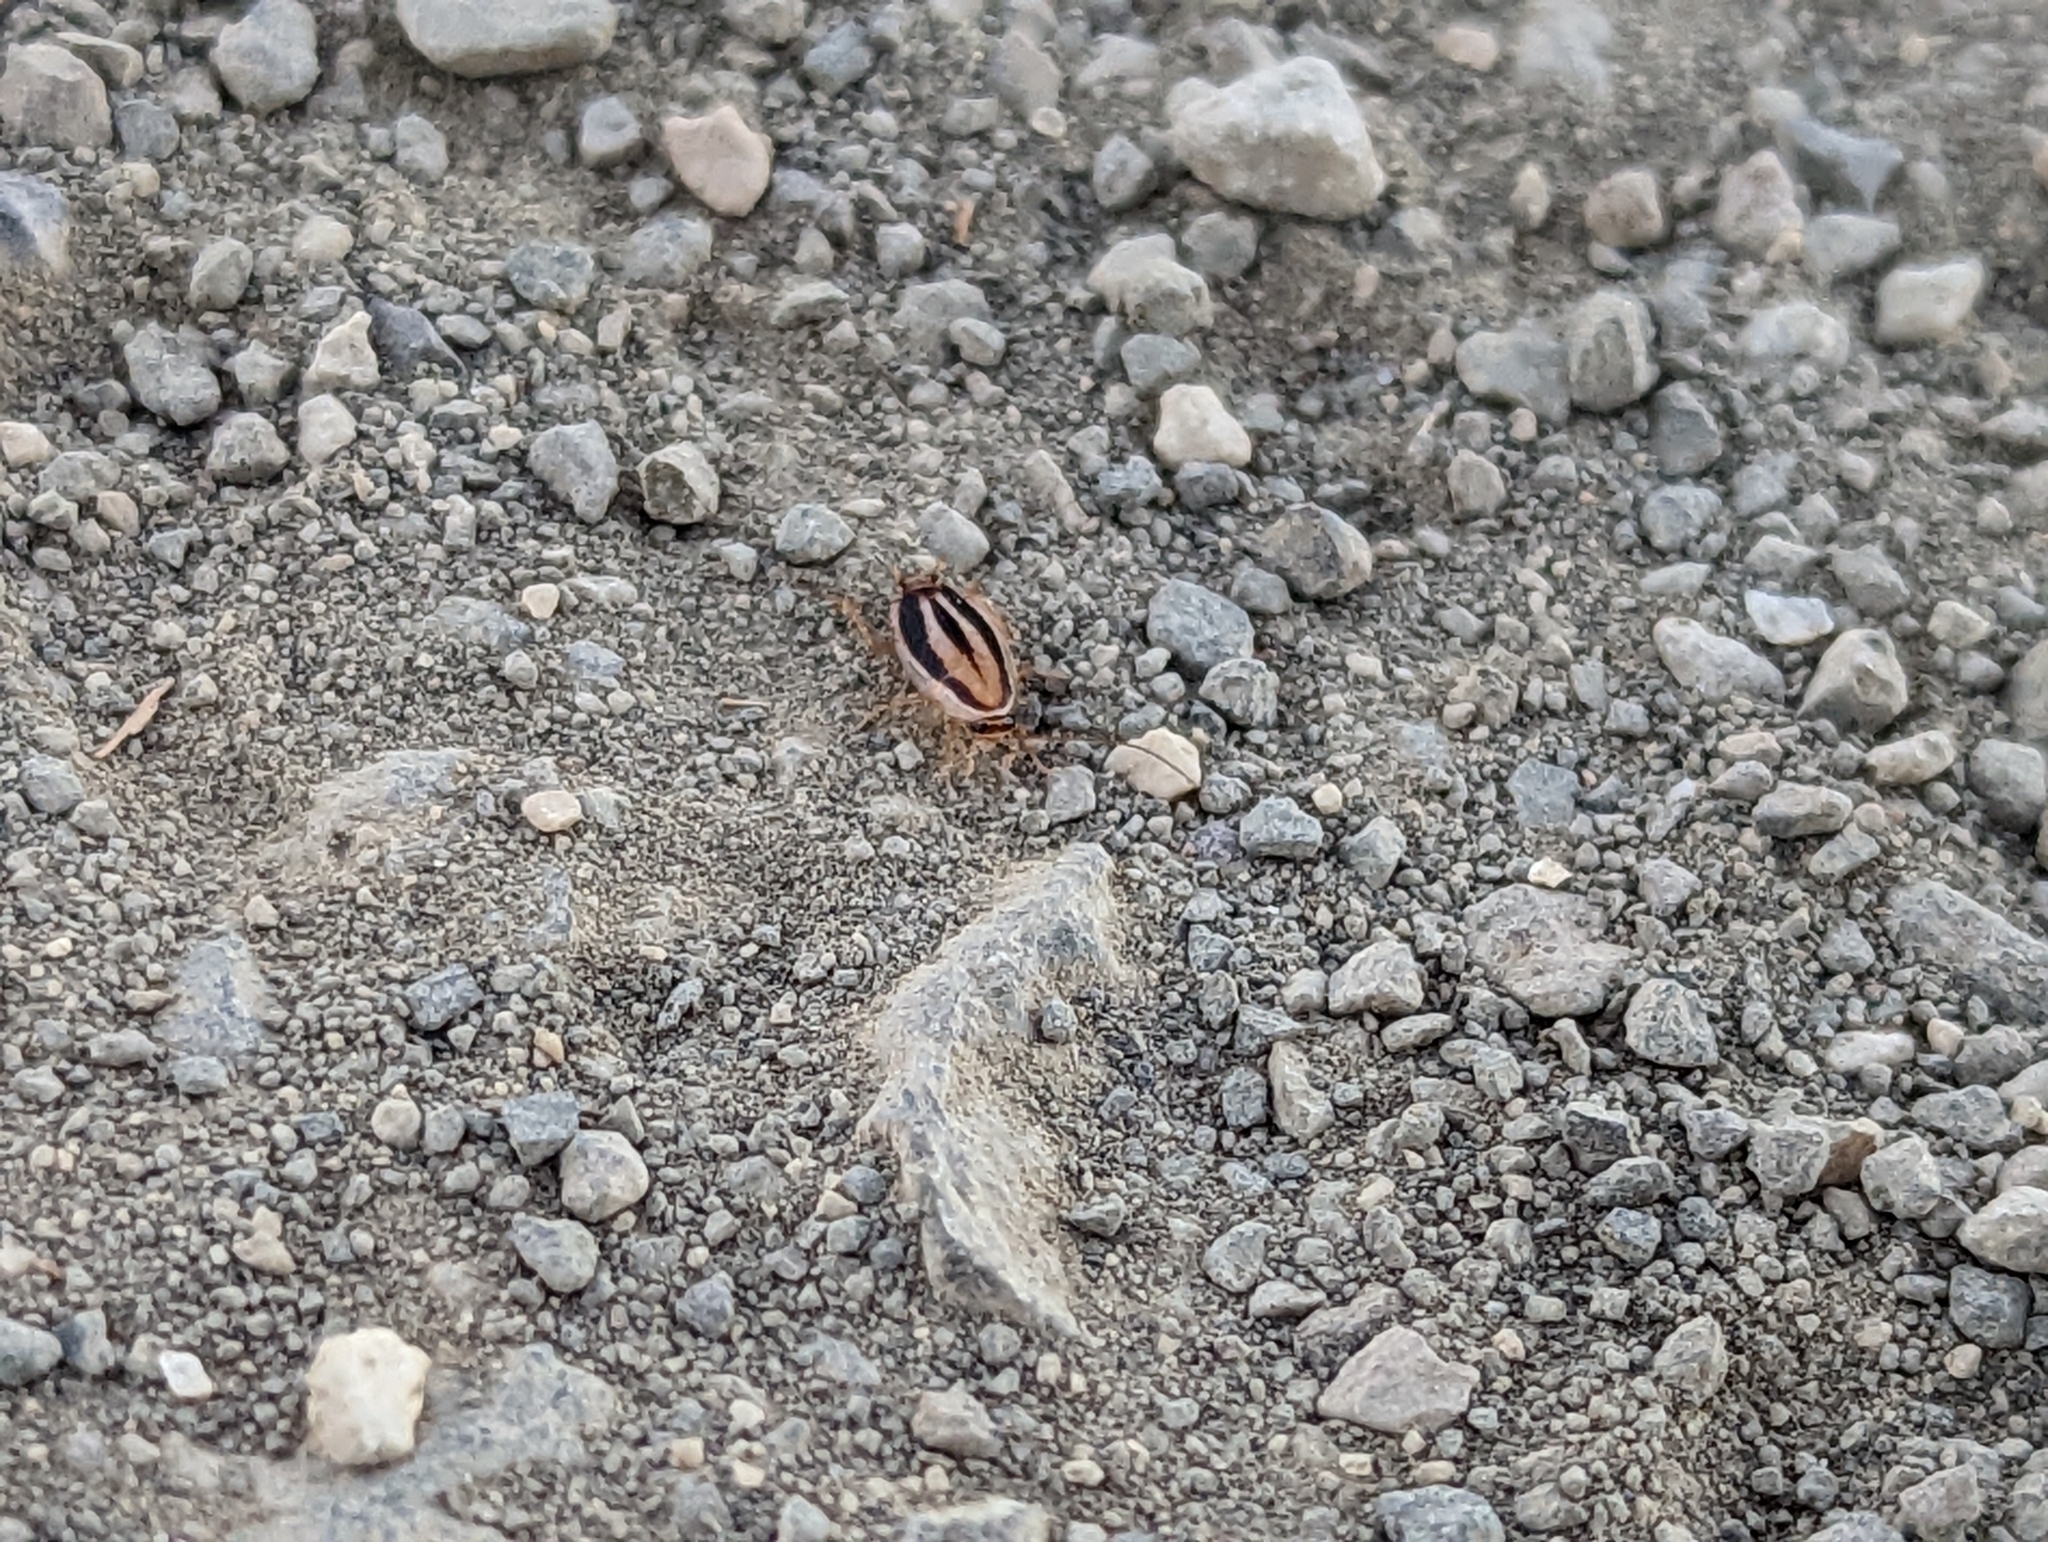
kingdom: Animalia
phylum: Arthropoda
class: Insecta
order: Blattodea
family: Ectobiidae
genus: Luridiblatta
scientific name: Luridiblatta trivittata
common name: Three-lined cockroach
